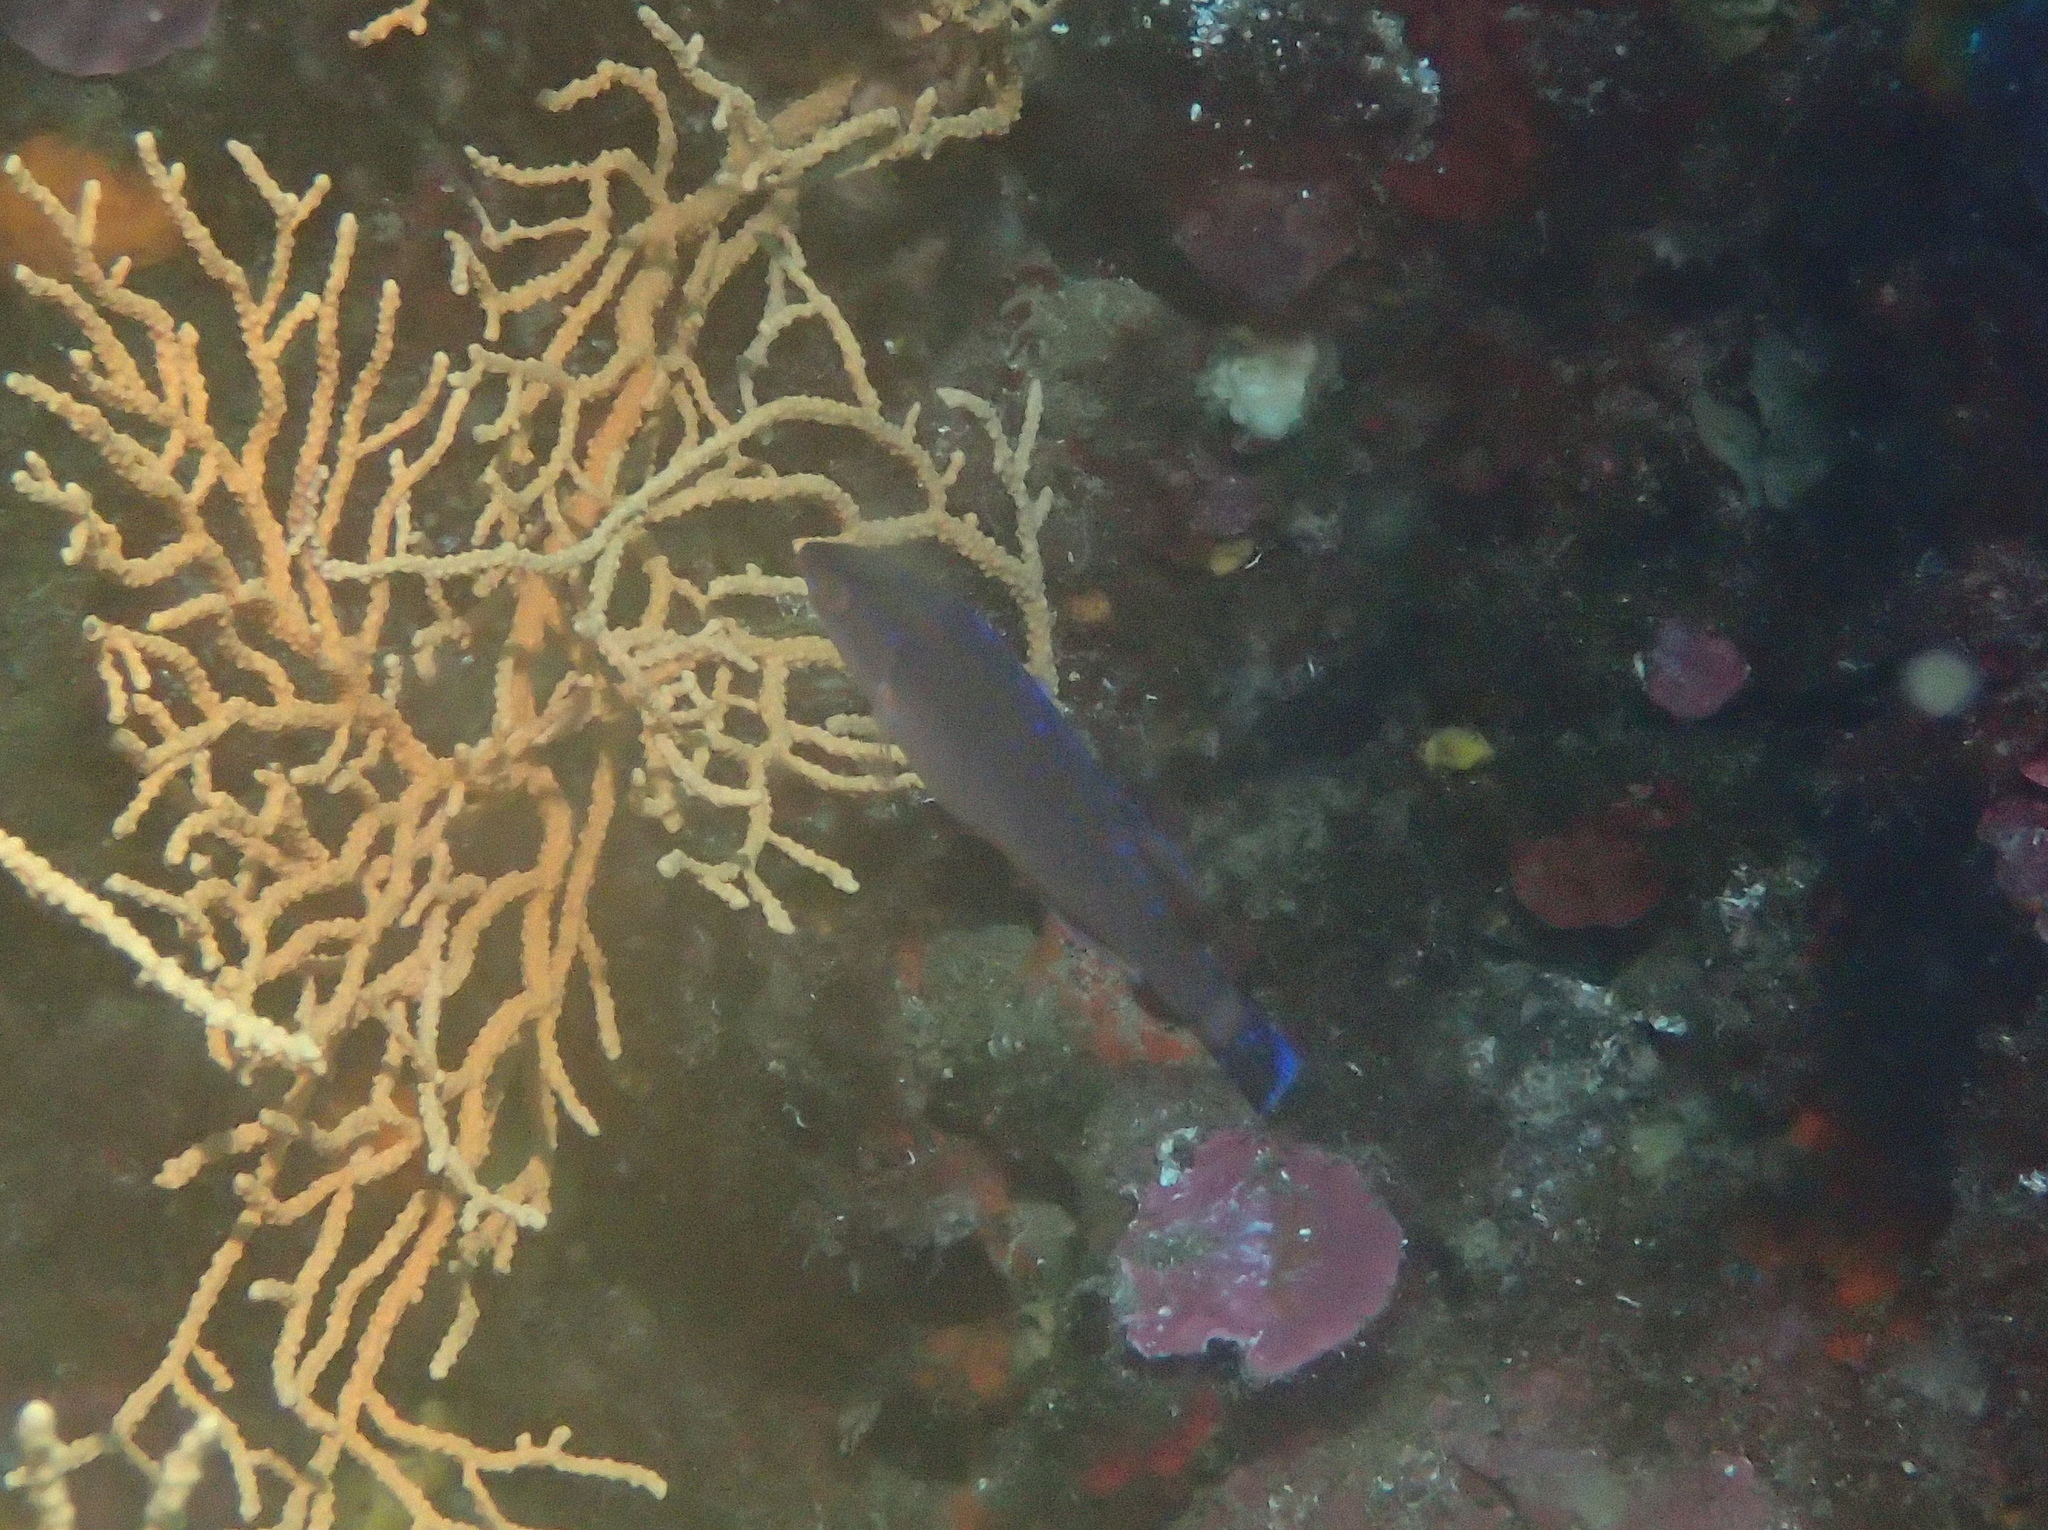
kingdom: Animalia
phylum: Chordata
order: Perciformes
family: Labridae
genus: Centrolabrus
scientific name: Centrolabrus melanocercus
